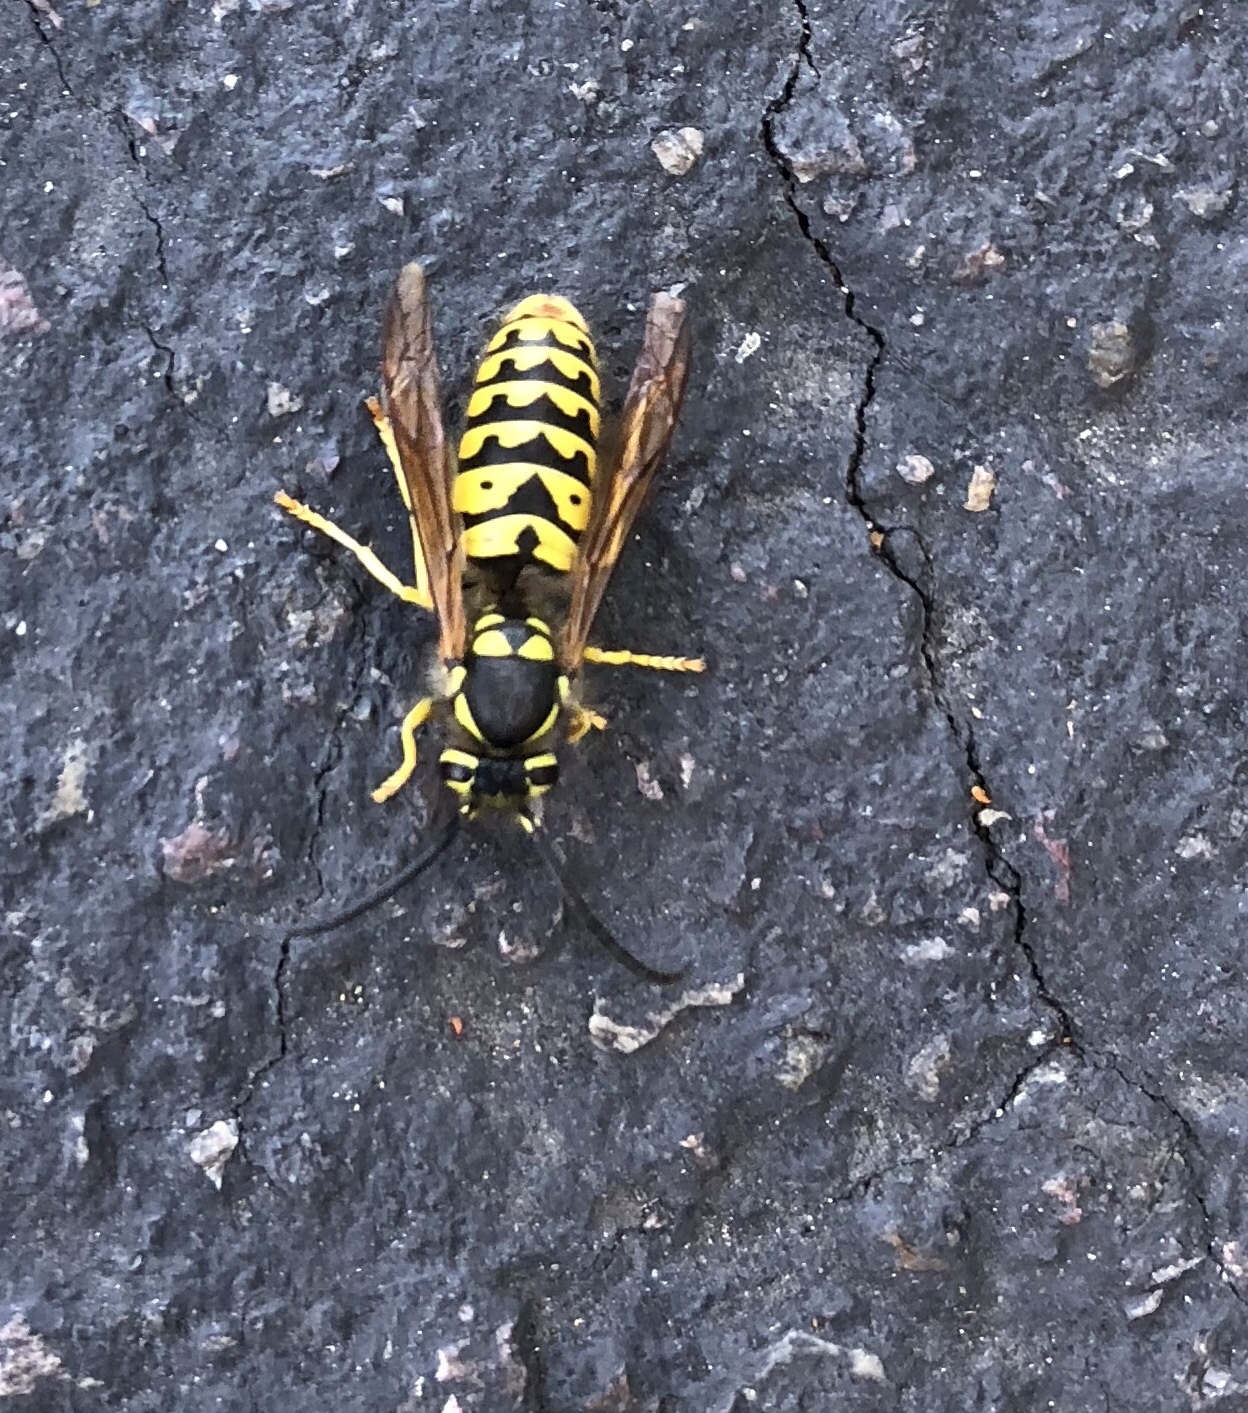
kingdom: Animalia
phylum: Arthropoda
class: Insecta
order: Hymenoptera
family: Vespidae
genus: Vespula
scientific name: Vespula pensylvanica
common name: Western yellowjacket
